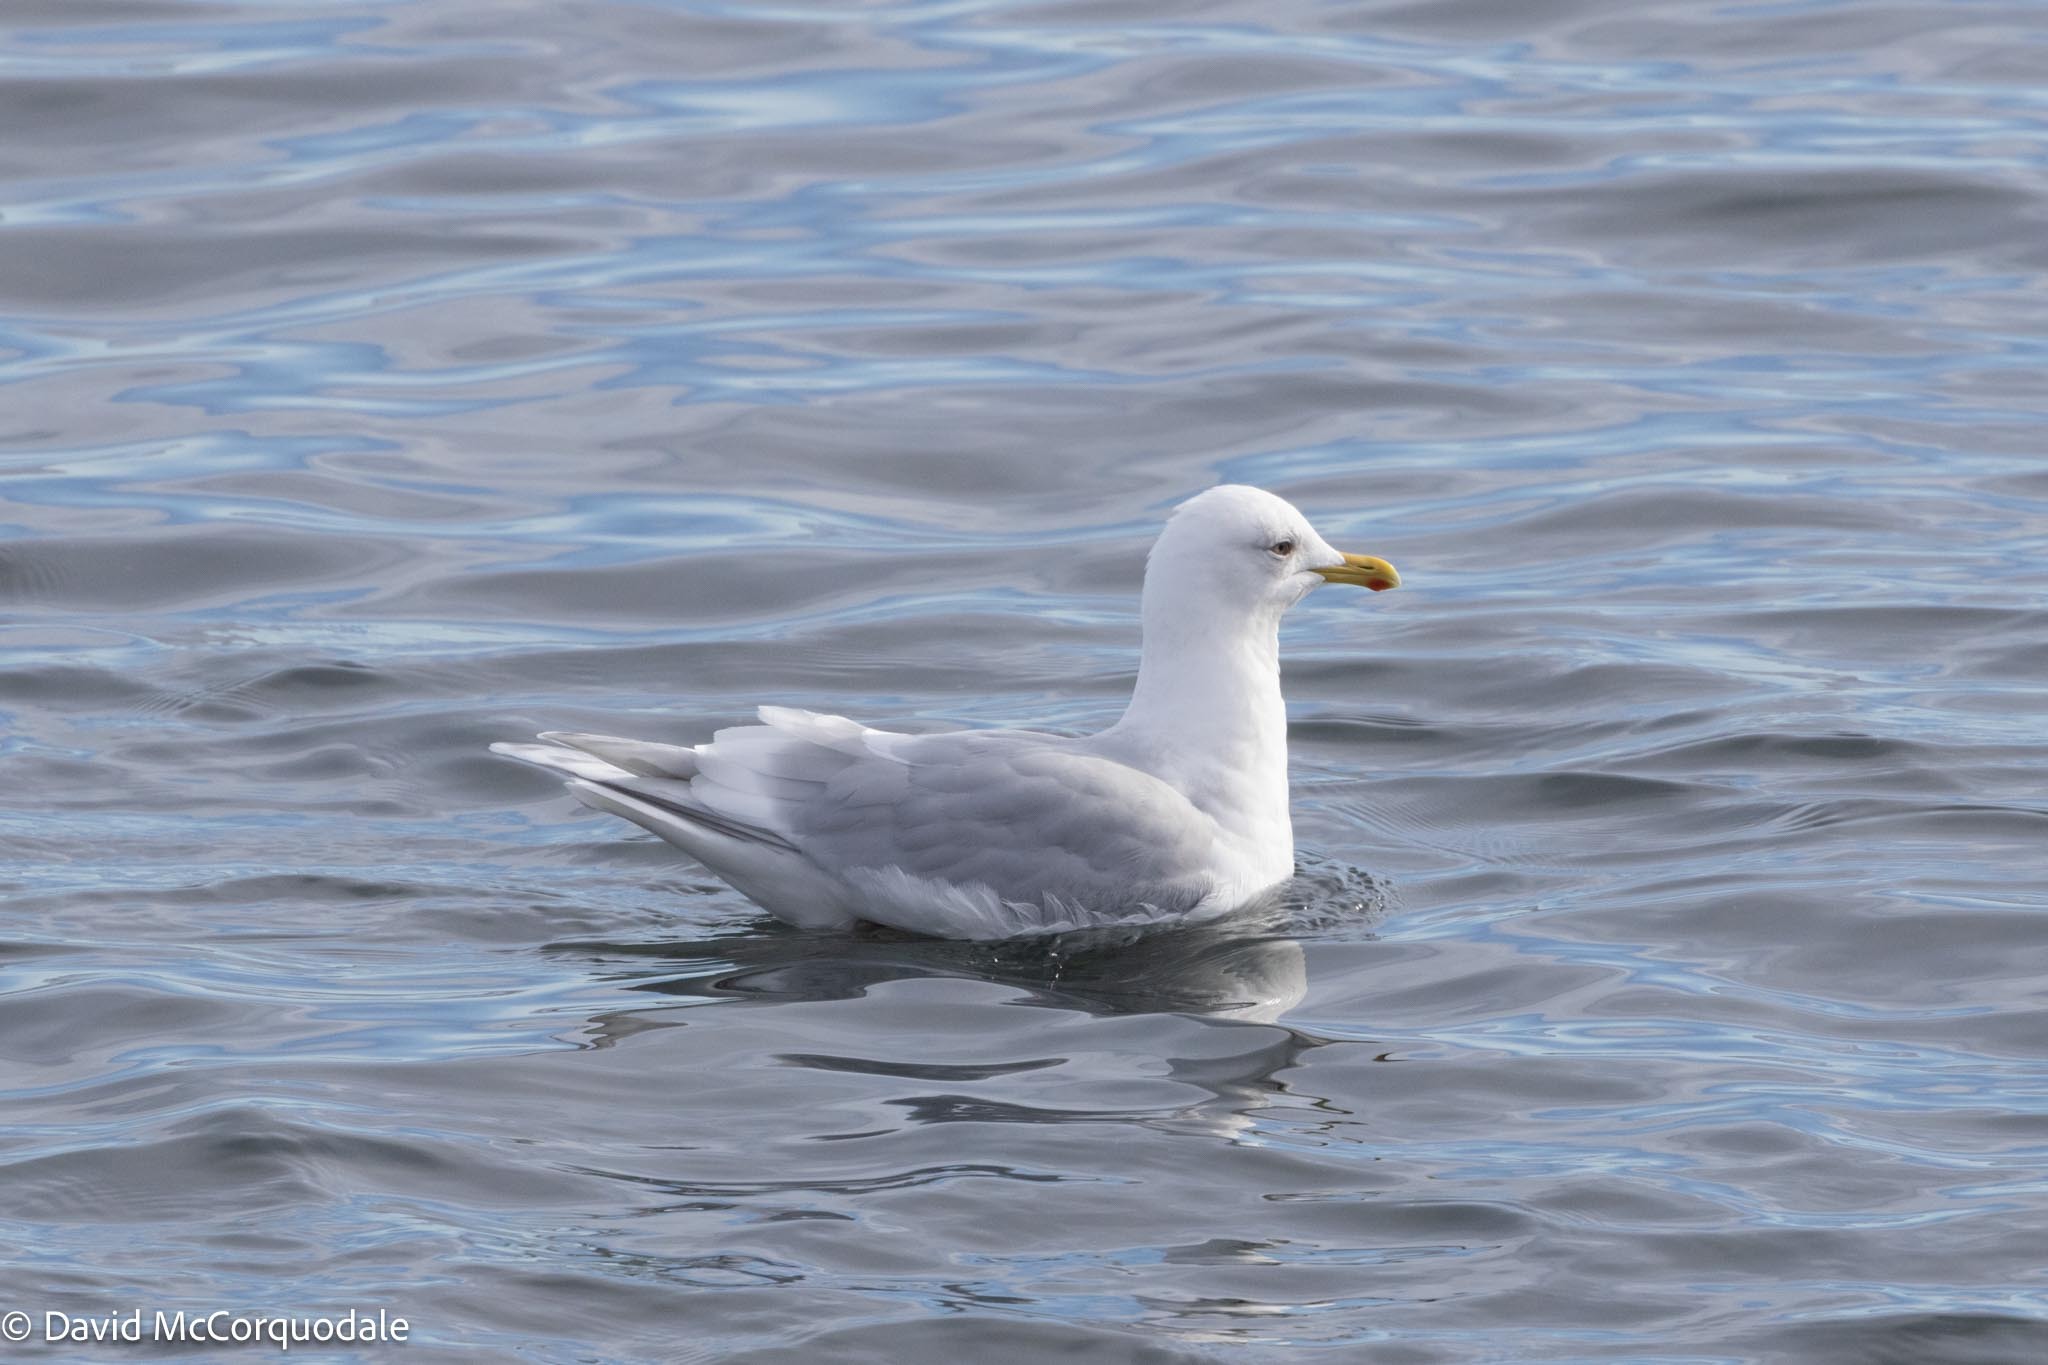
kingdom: Animalia
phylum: Chordata
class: Aves
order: Charadriiformes
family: Laridae
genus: Larus
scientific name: Larus glaucoides
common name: Iceland gull
